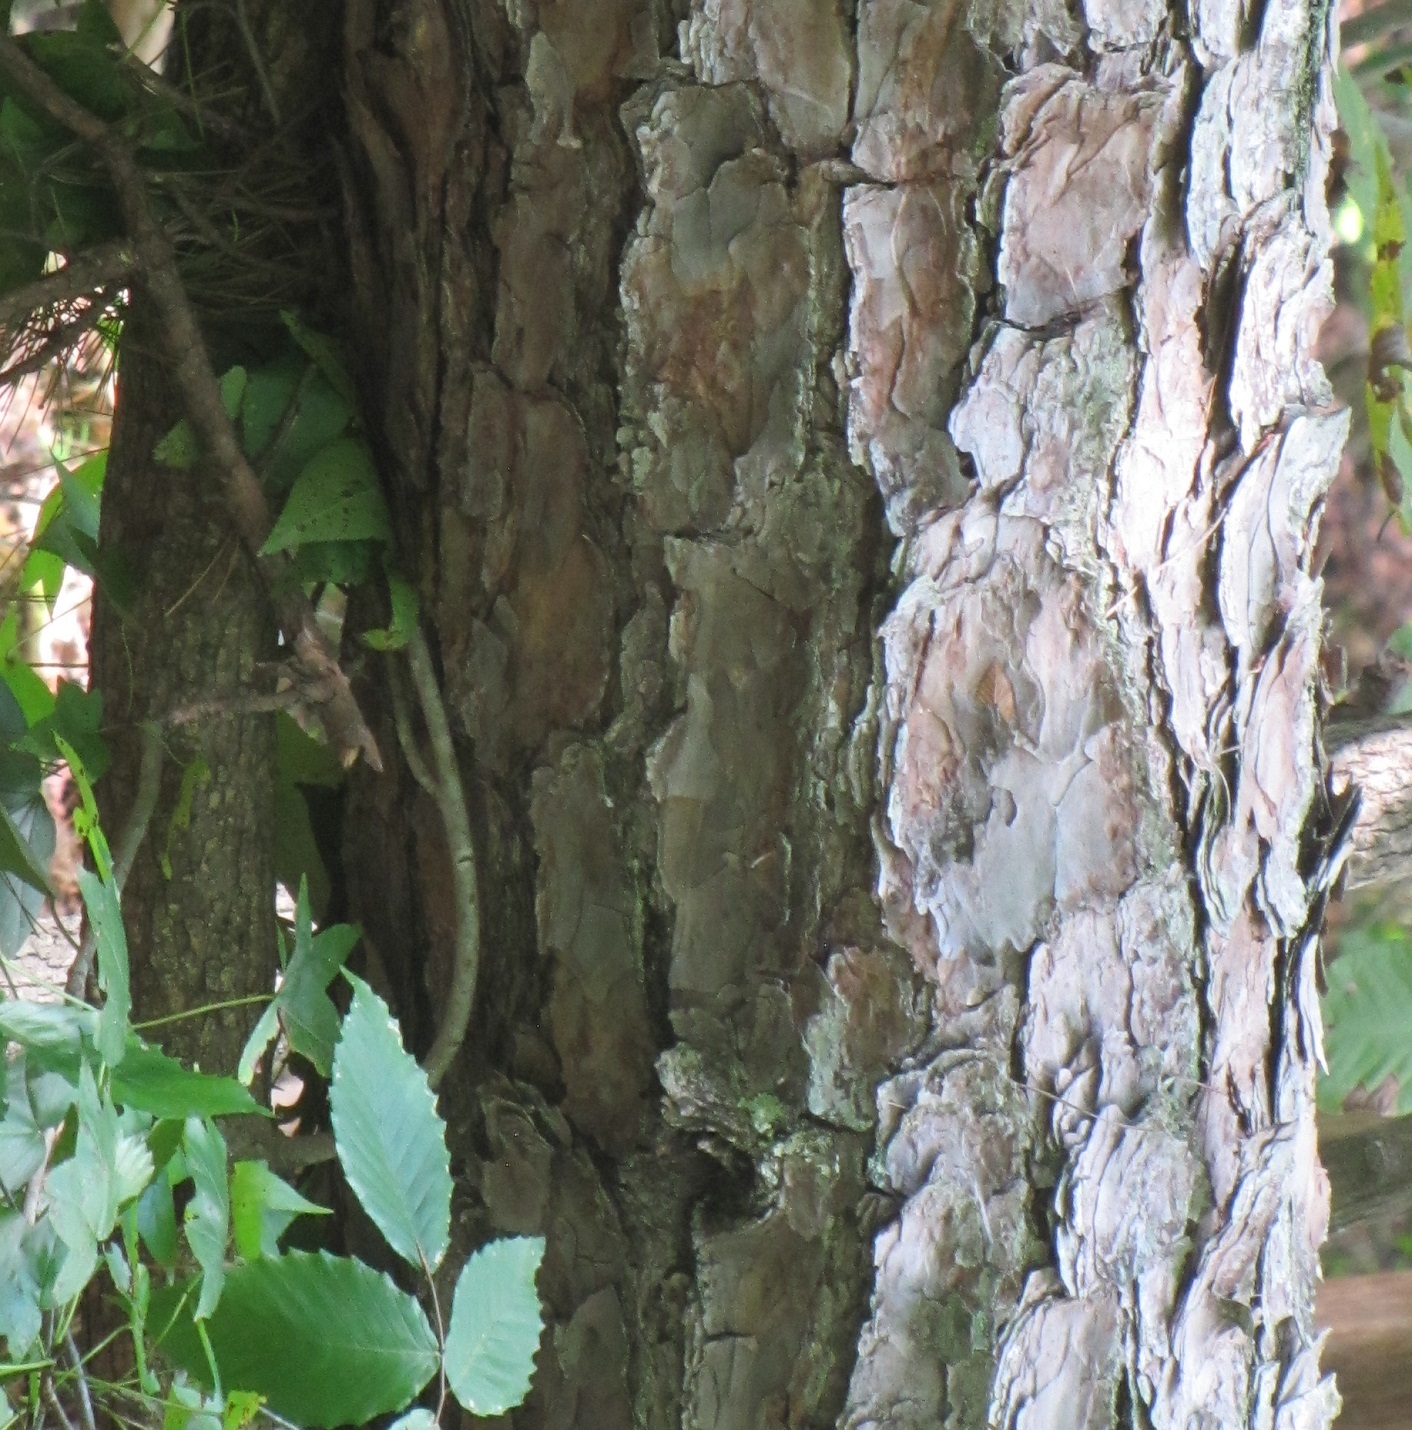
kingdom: Plantae
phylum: Tracheophyta
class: Pinopsida
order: Pinales
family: Pinaceae
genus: Pinus
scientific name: Pinus echinata
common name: Shortleaf pine
